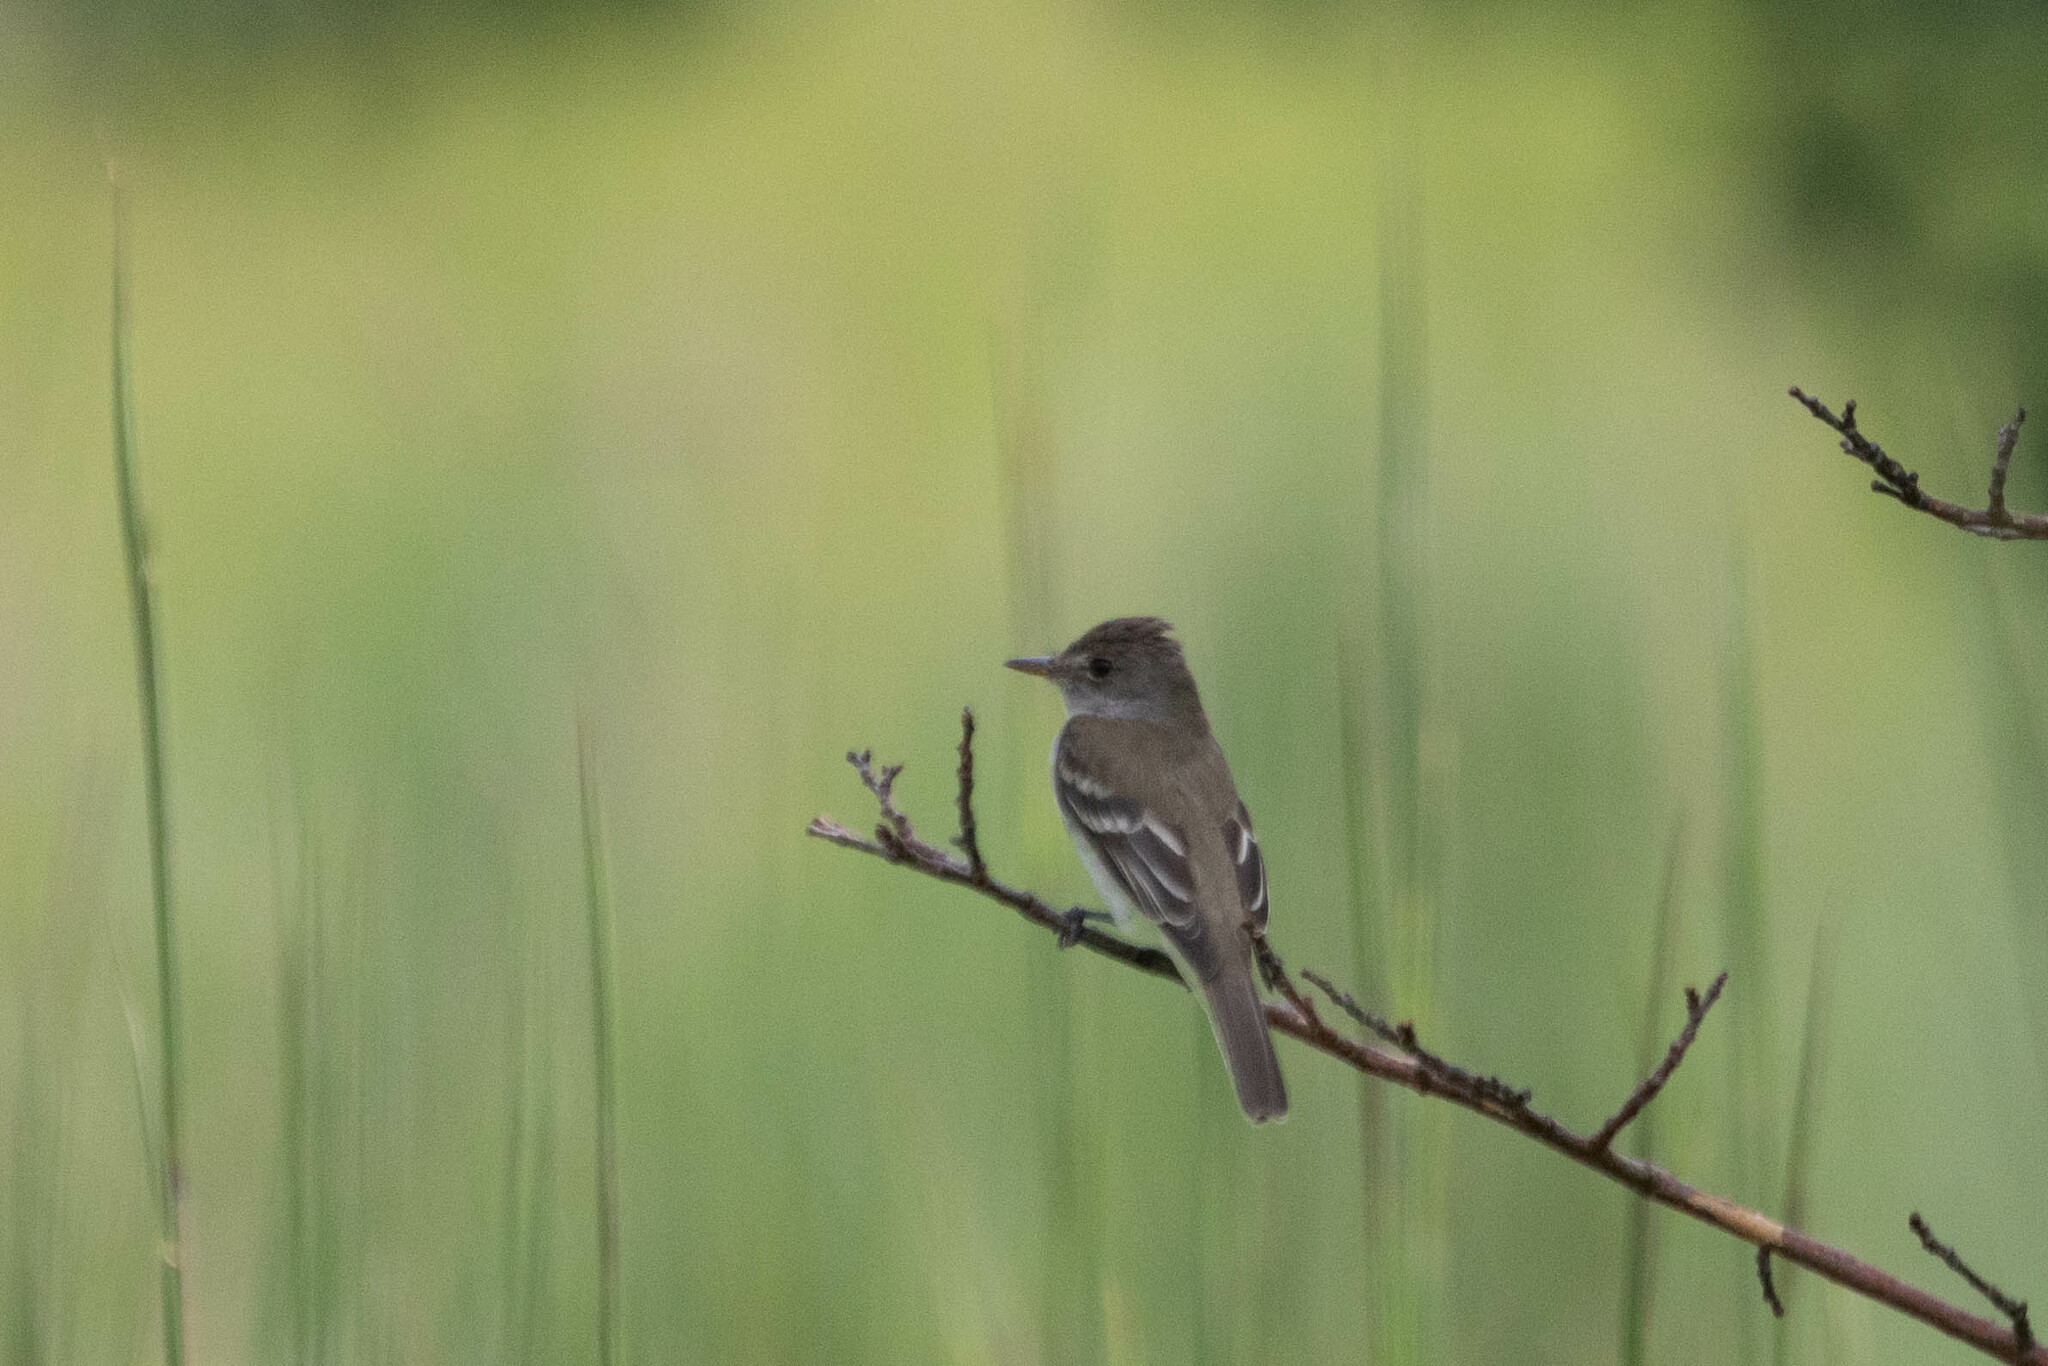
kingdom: Animalia
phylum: Chordata
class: Aves
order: Passeriformes
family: Tyrannidae
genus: Empidonax
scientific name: Empidonax traillii
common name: Willow flycatcher
